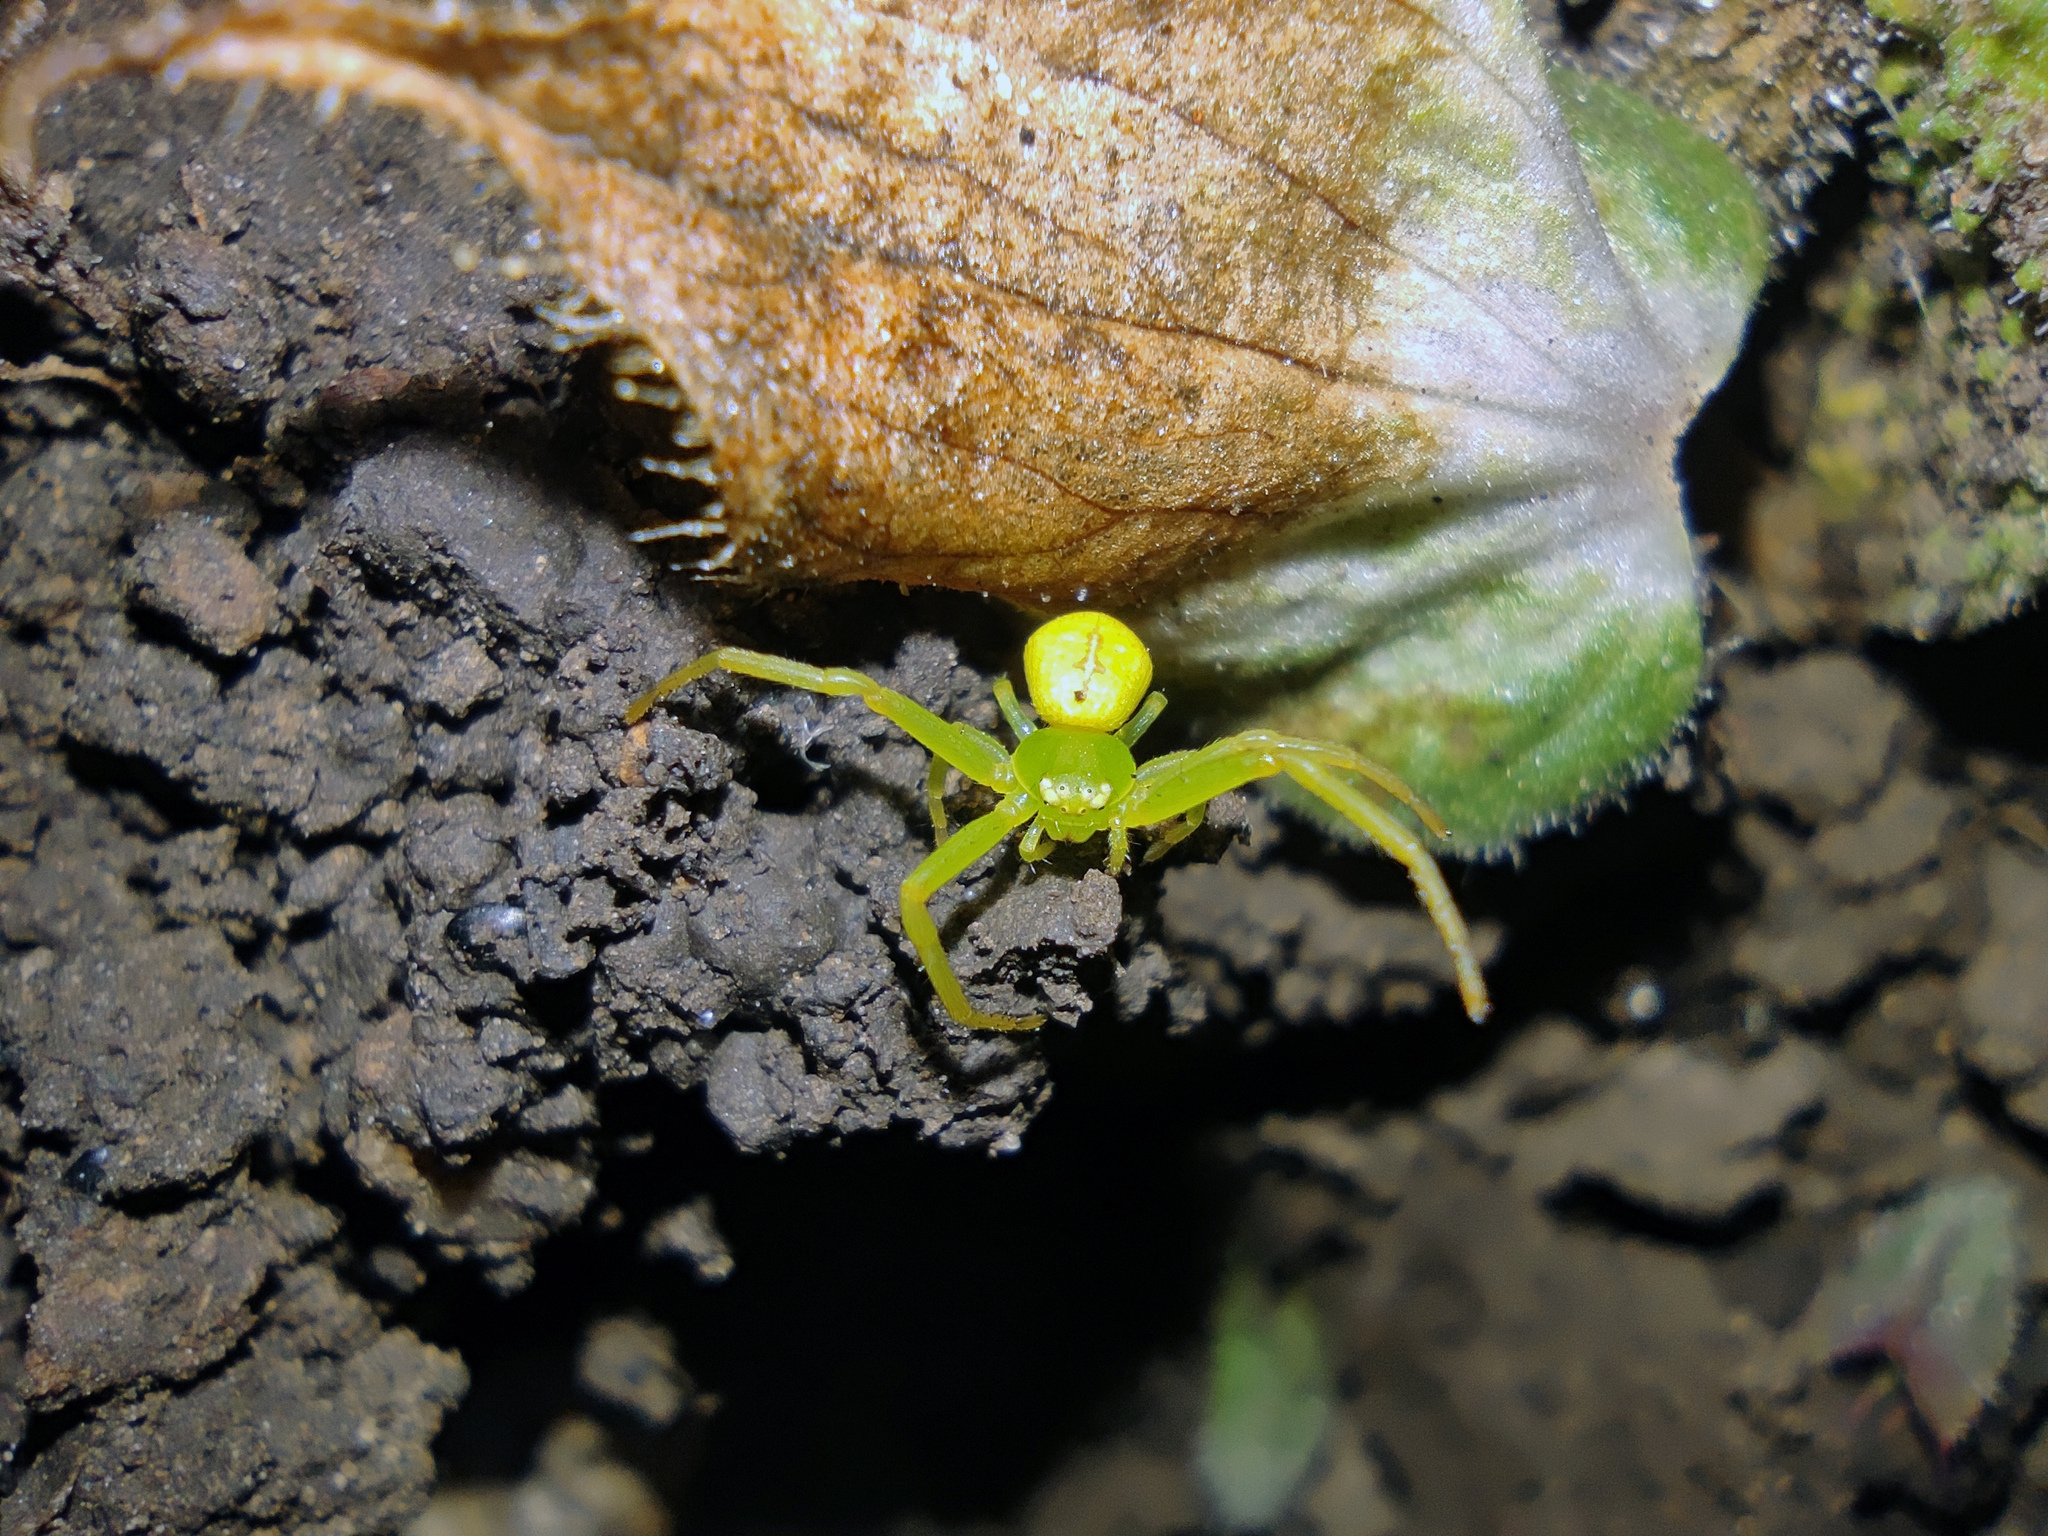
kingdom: Animalia
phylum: Arthropoda
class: Arachnida
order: Araneae
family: Thomisidae
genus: Ebrechtella
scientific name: Ebrechtella tricuspidata
